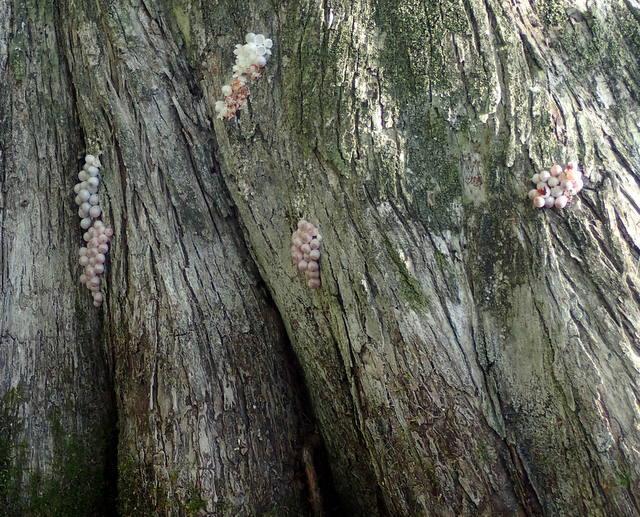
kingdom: Animalia
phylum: Mollusca
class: Gastropoda
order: Architaenioglossa
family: Ampullariidae
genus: Pomacea
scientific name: Pomacea paludosa
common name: Florida applesnail
